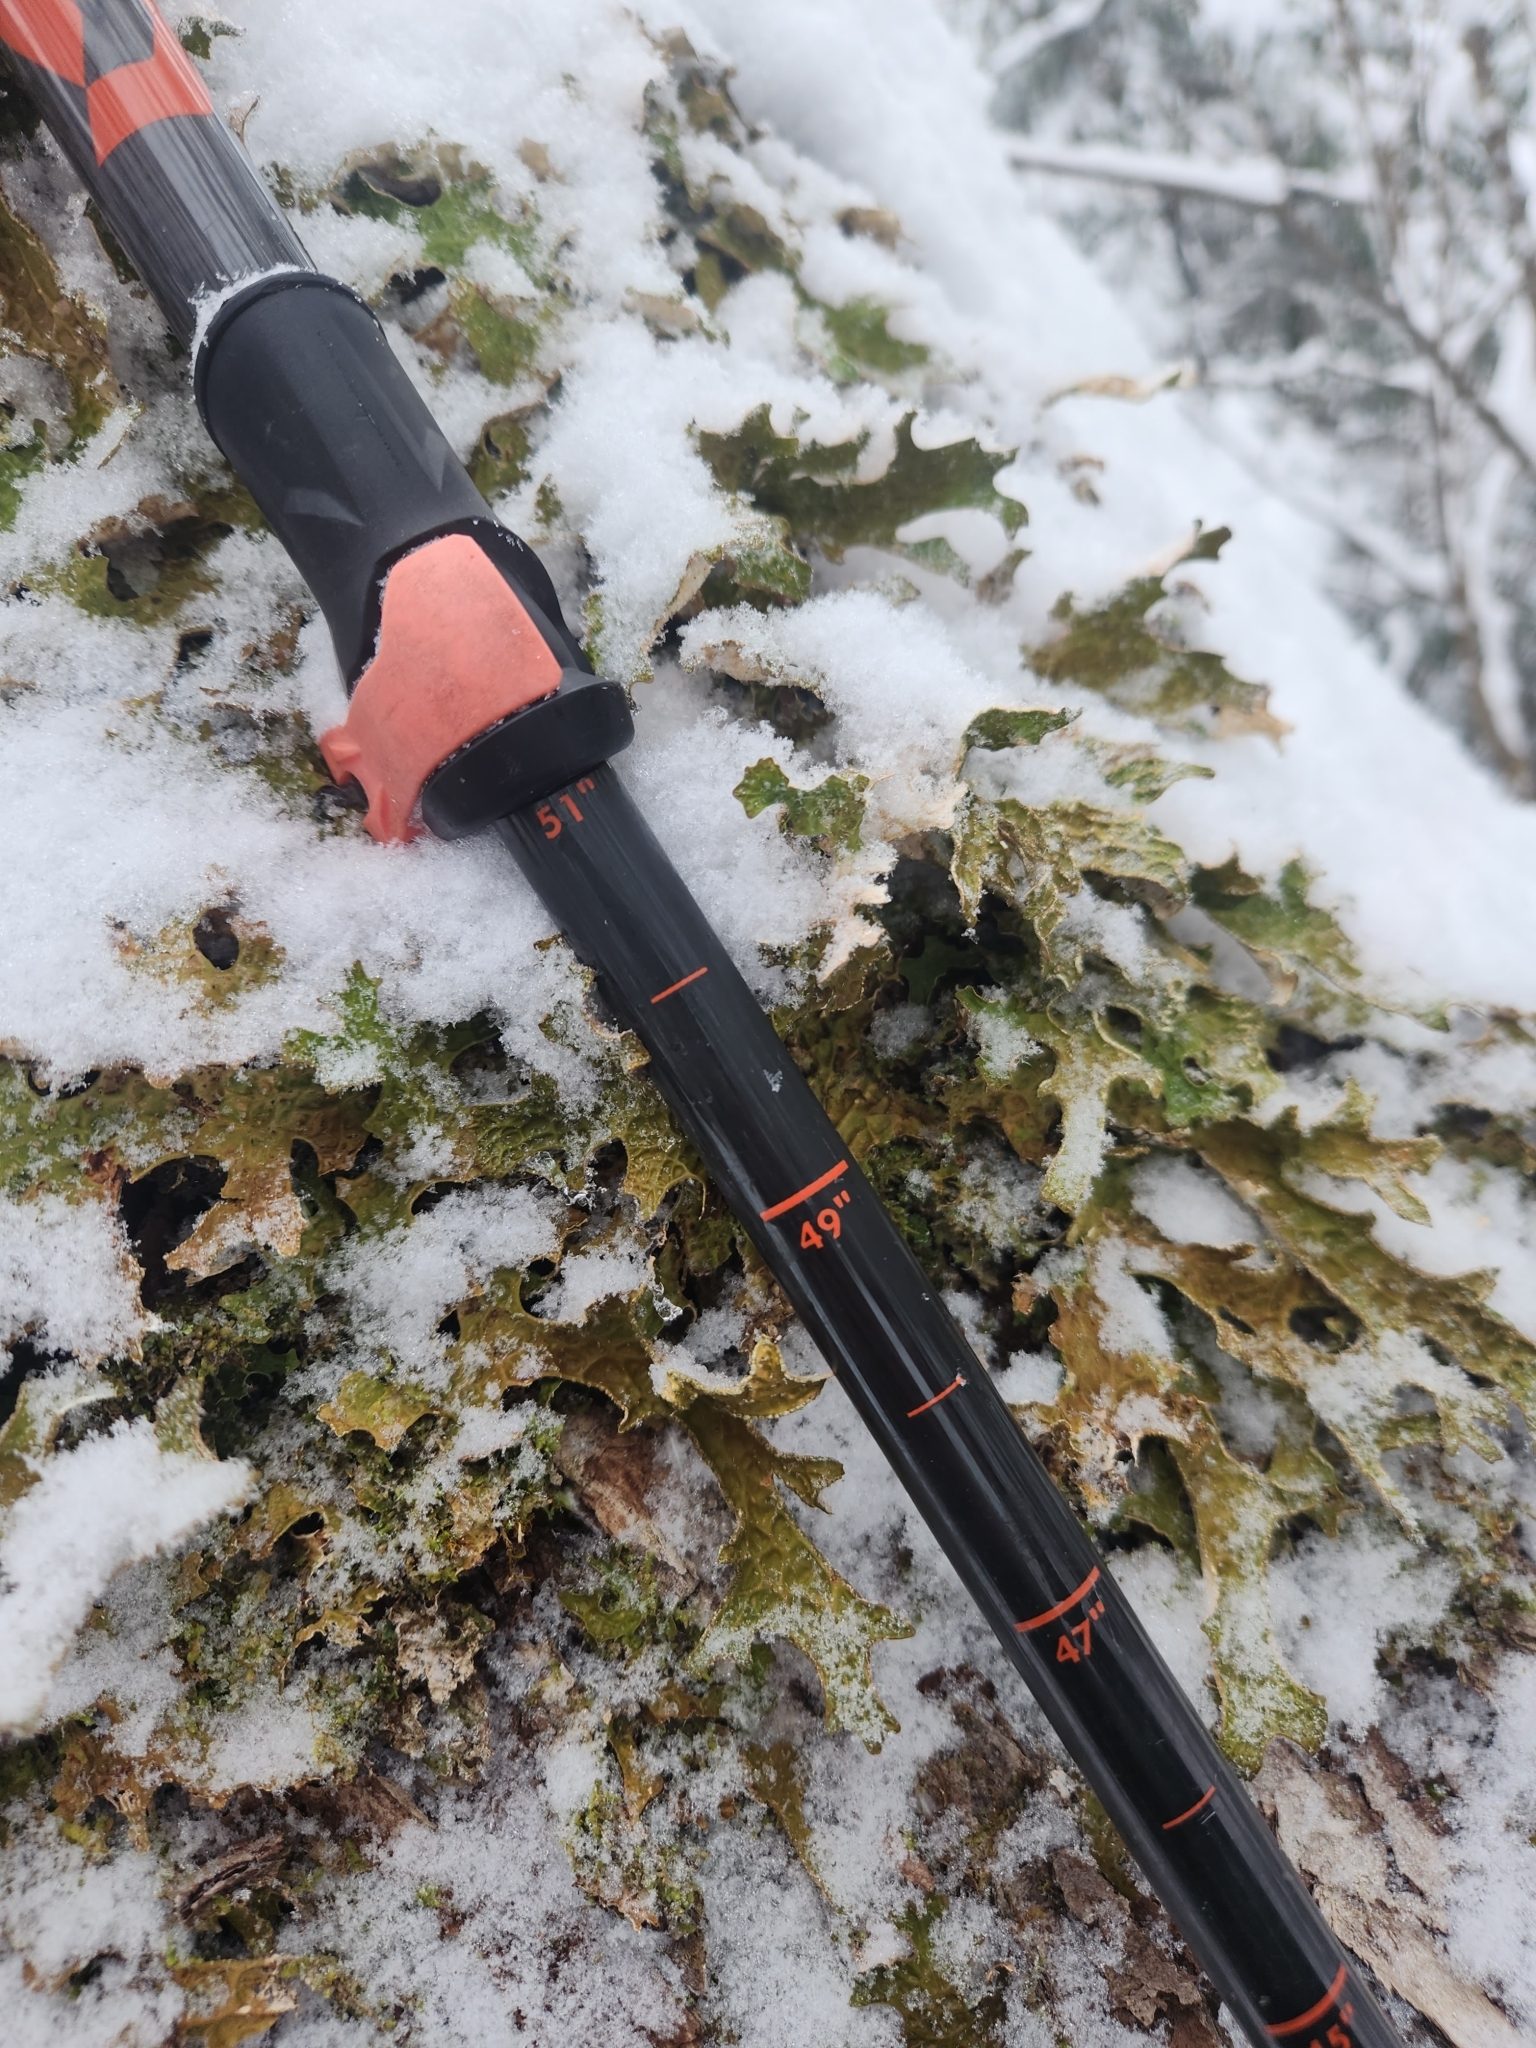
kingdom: Fungi
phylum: Ascomycota
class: Lecanoromycetes
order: Peltigerales
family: Lobariaceae
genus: Lobaria
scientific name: Lobaria pulmonaria
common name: Lungwort
